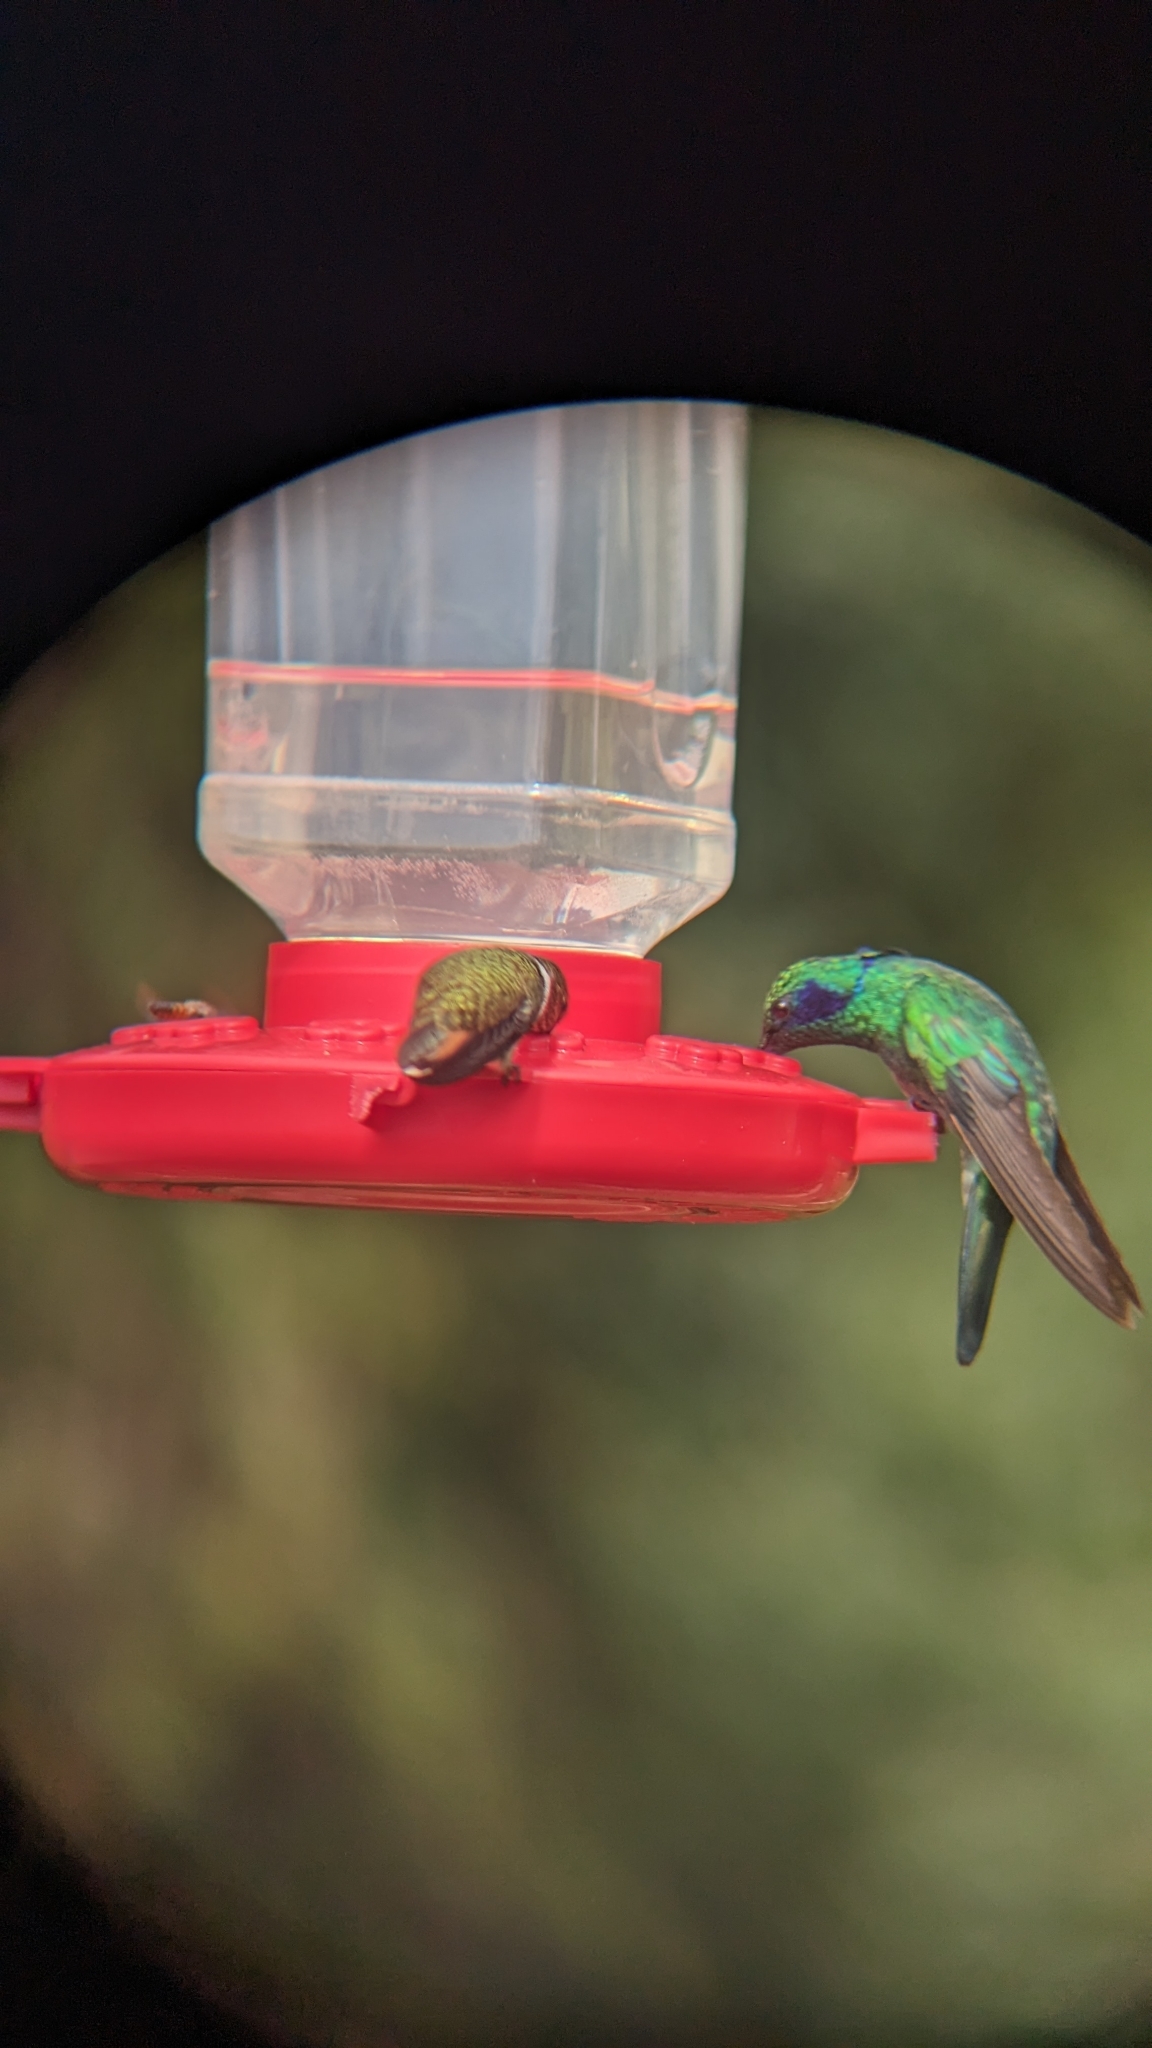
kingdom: Animalia
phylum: Chordata
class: Aves
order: Apodiformes
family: Trochilidae
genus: Colibri
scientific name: Colibri cyanotus
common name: Lesser violetear
